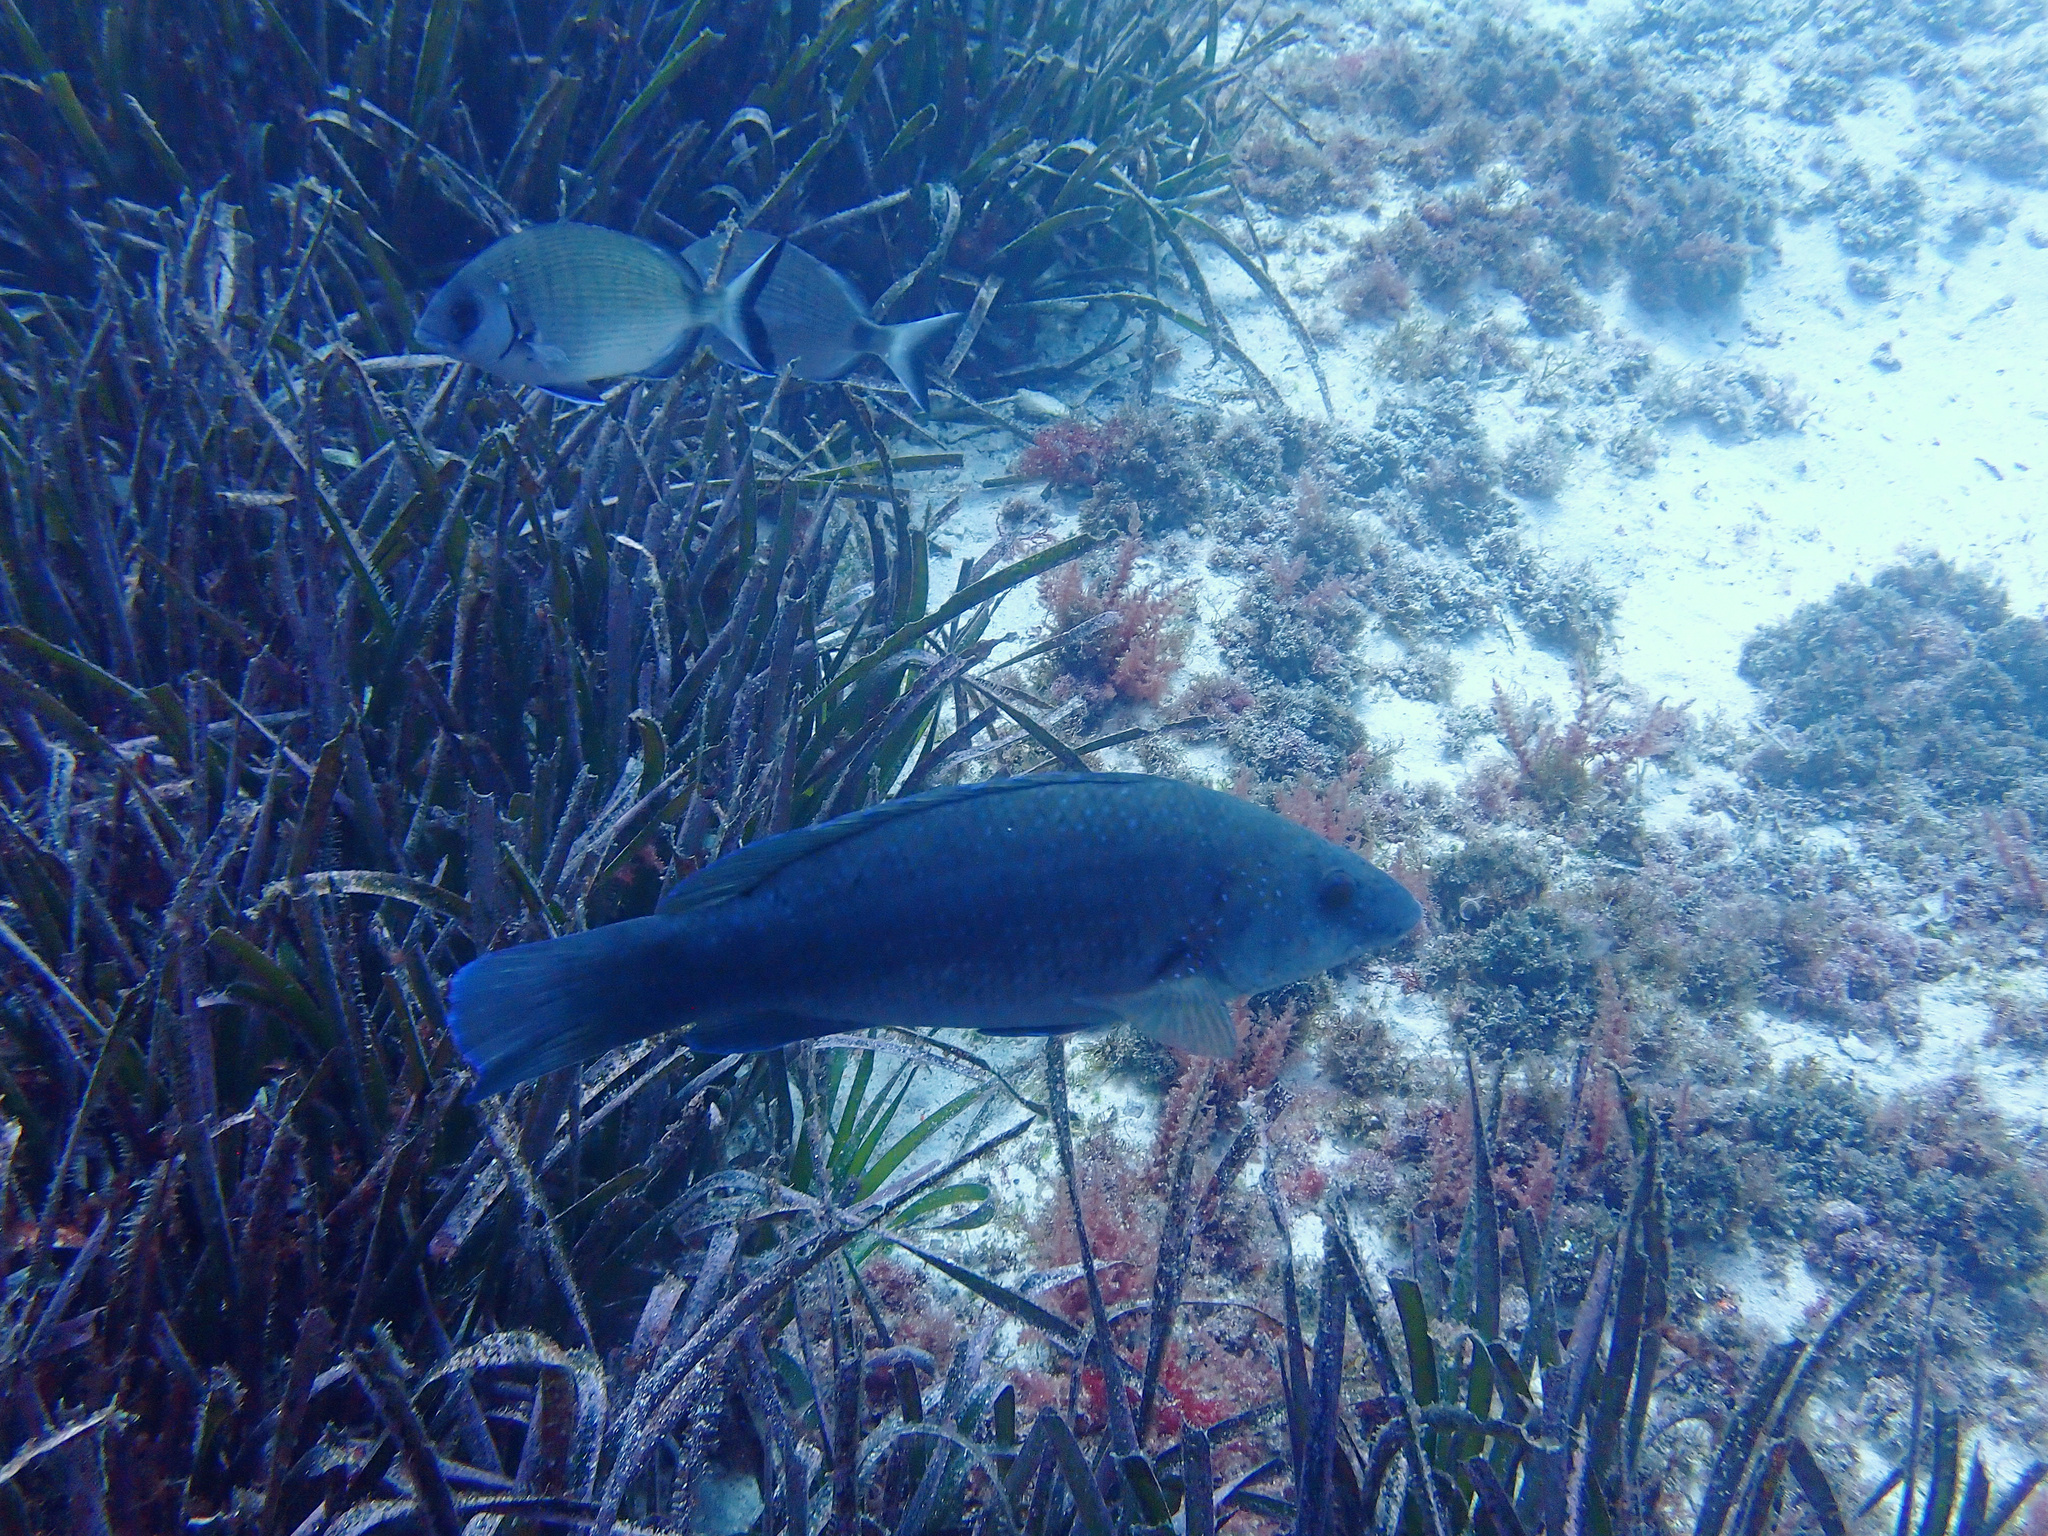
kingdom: Animalia
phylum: Chordata
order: Perciformes
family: Labridae
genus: Labrus
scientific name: Labrus merula
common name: Brown wrasse
